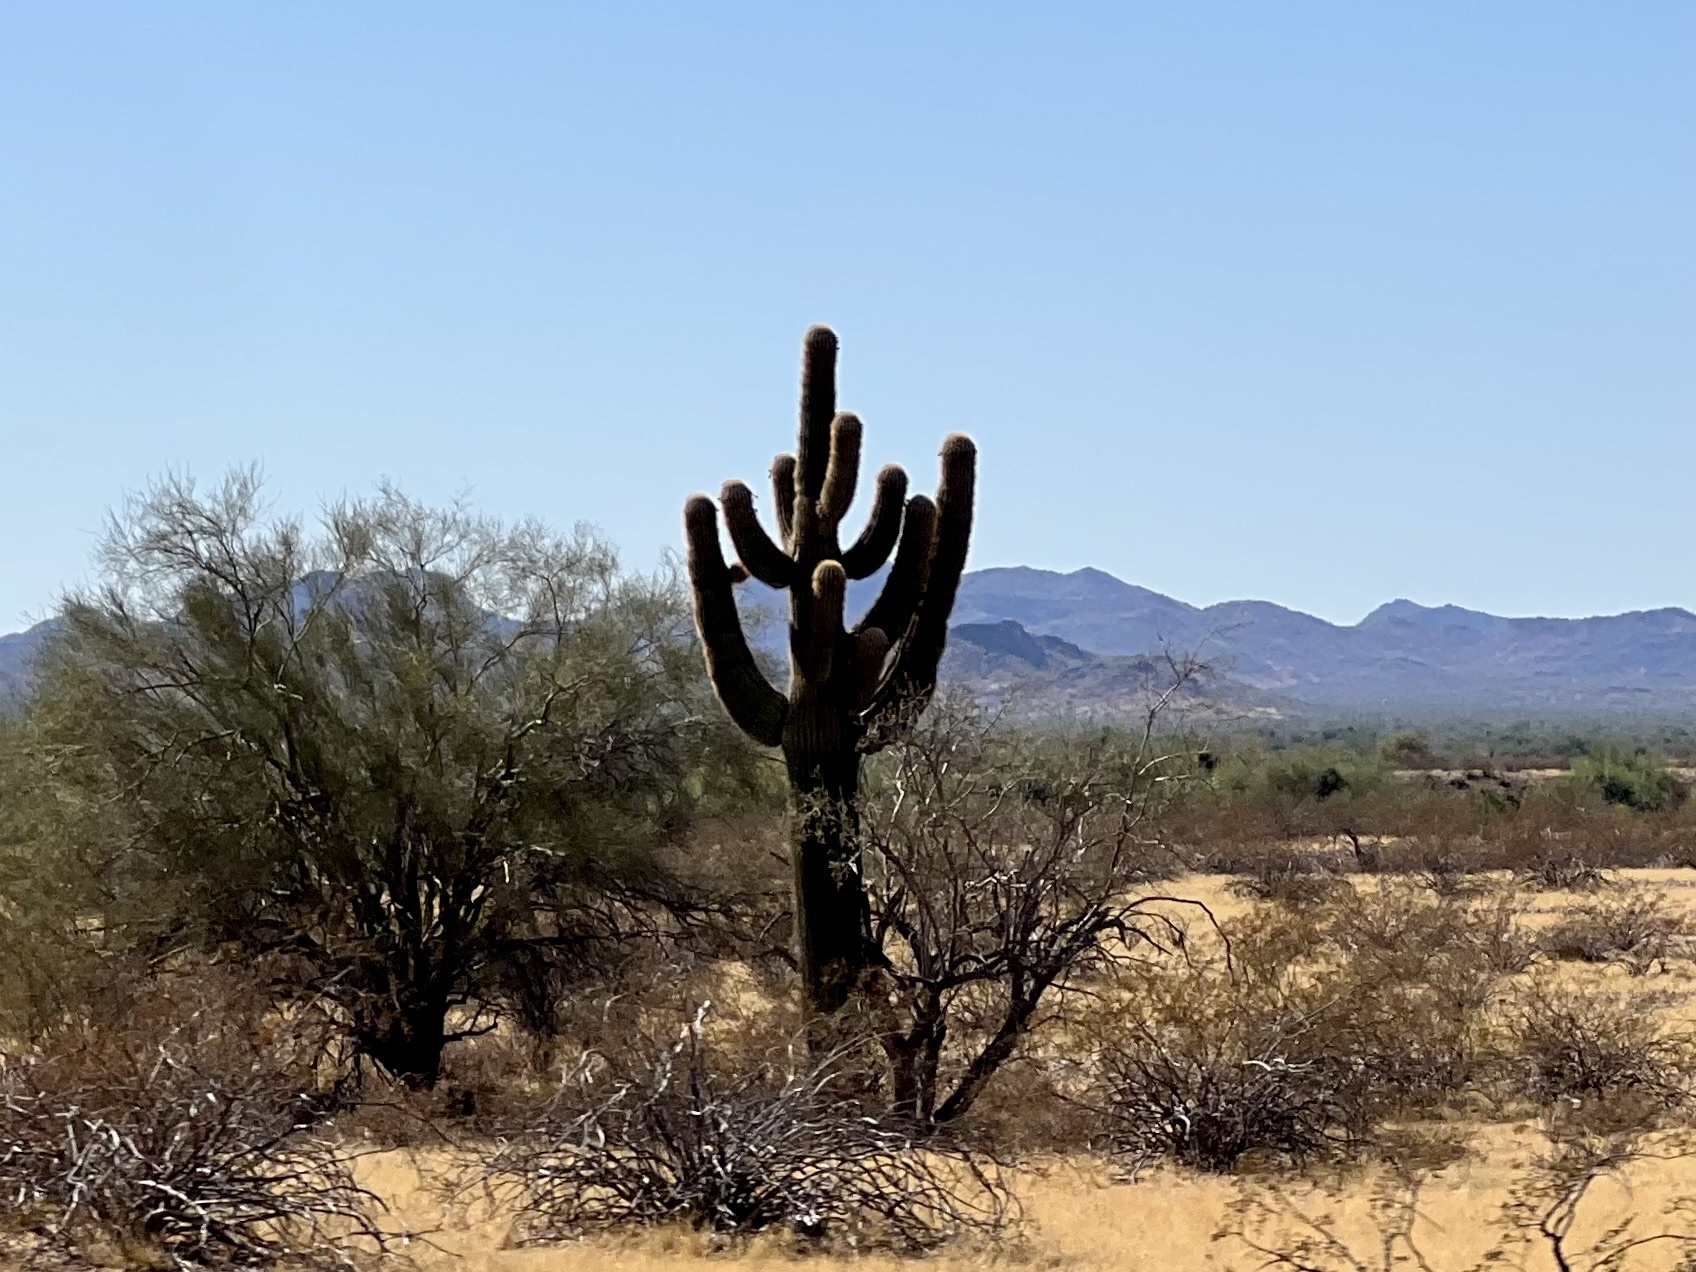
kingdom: Plantae
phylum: Tracheophyta
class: Magnoliopsida
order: Caryophyllales
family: Cactaceae
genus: Carnegiea
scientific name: Carnegiea gigantea
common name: Saguaro
